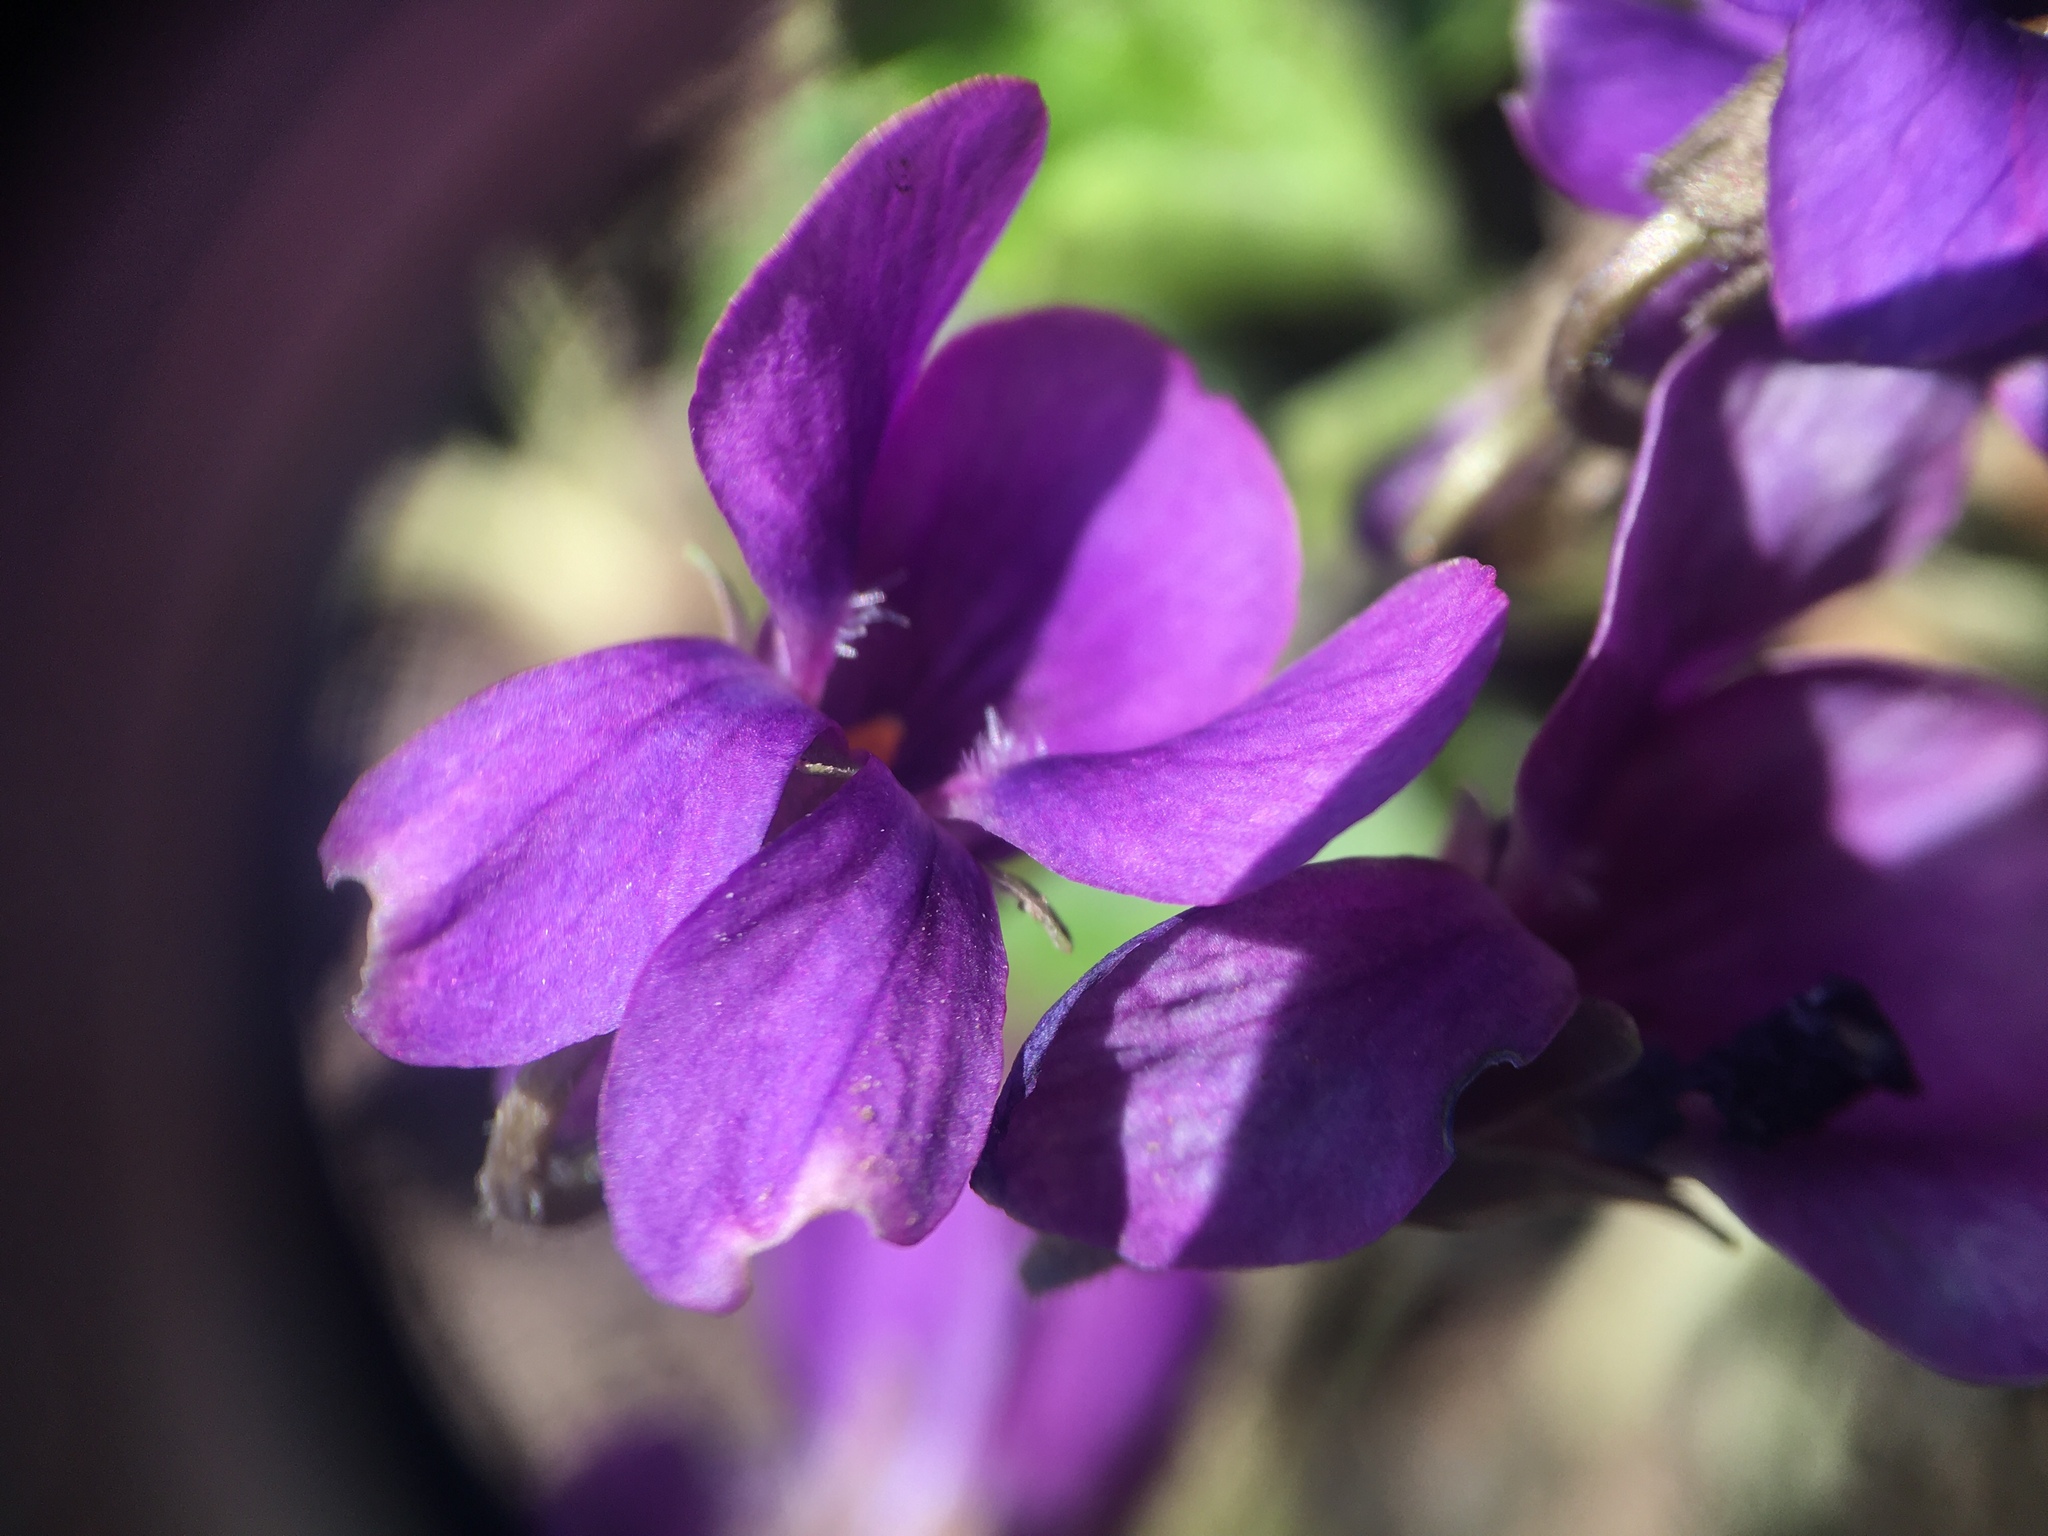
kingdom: Plantae
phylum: Tracheophyta
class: Magnoliopsida
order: Malpighiales
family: Violaceae
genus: Viola
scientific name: Viola odorata
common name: Sweet violet
